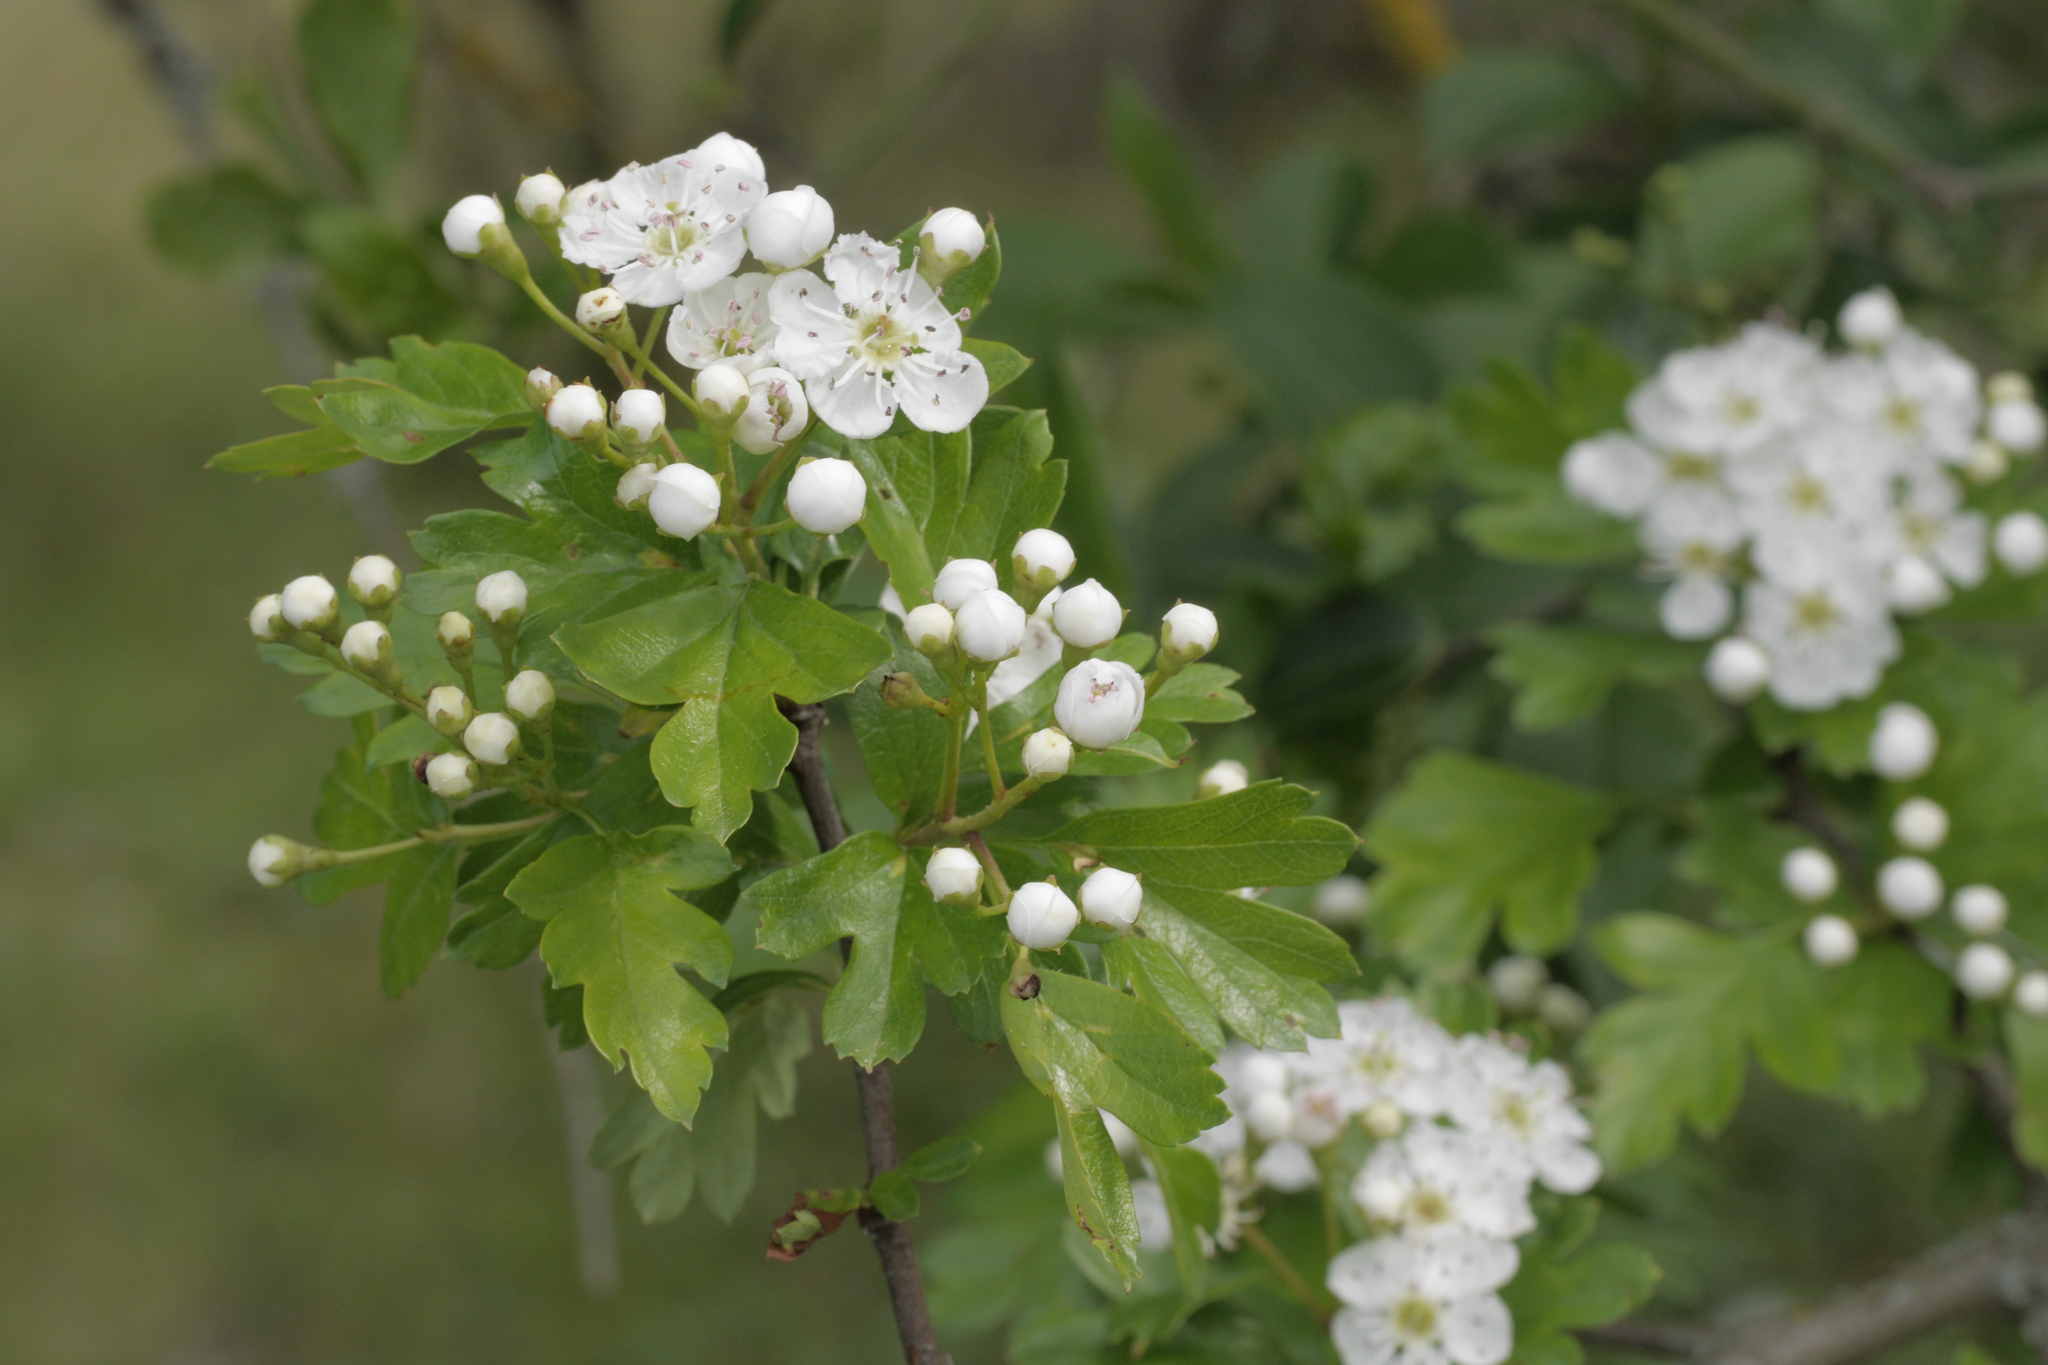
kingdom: Plantae
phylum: Tracheophyta
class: Magnoliopsida
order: Rosales
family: Rosaceae
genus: Crataegus
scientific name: Crataegus monogyna
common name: Hawthorn
